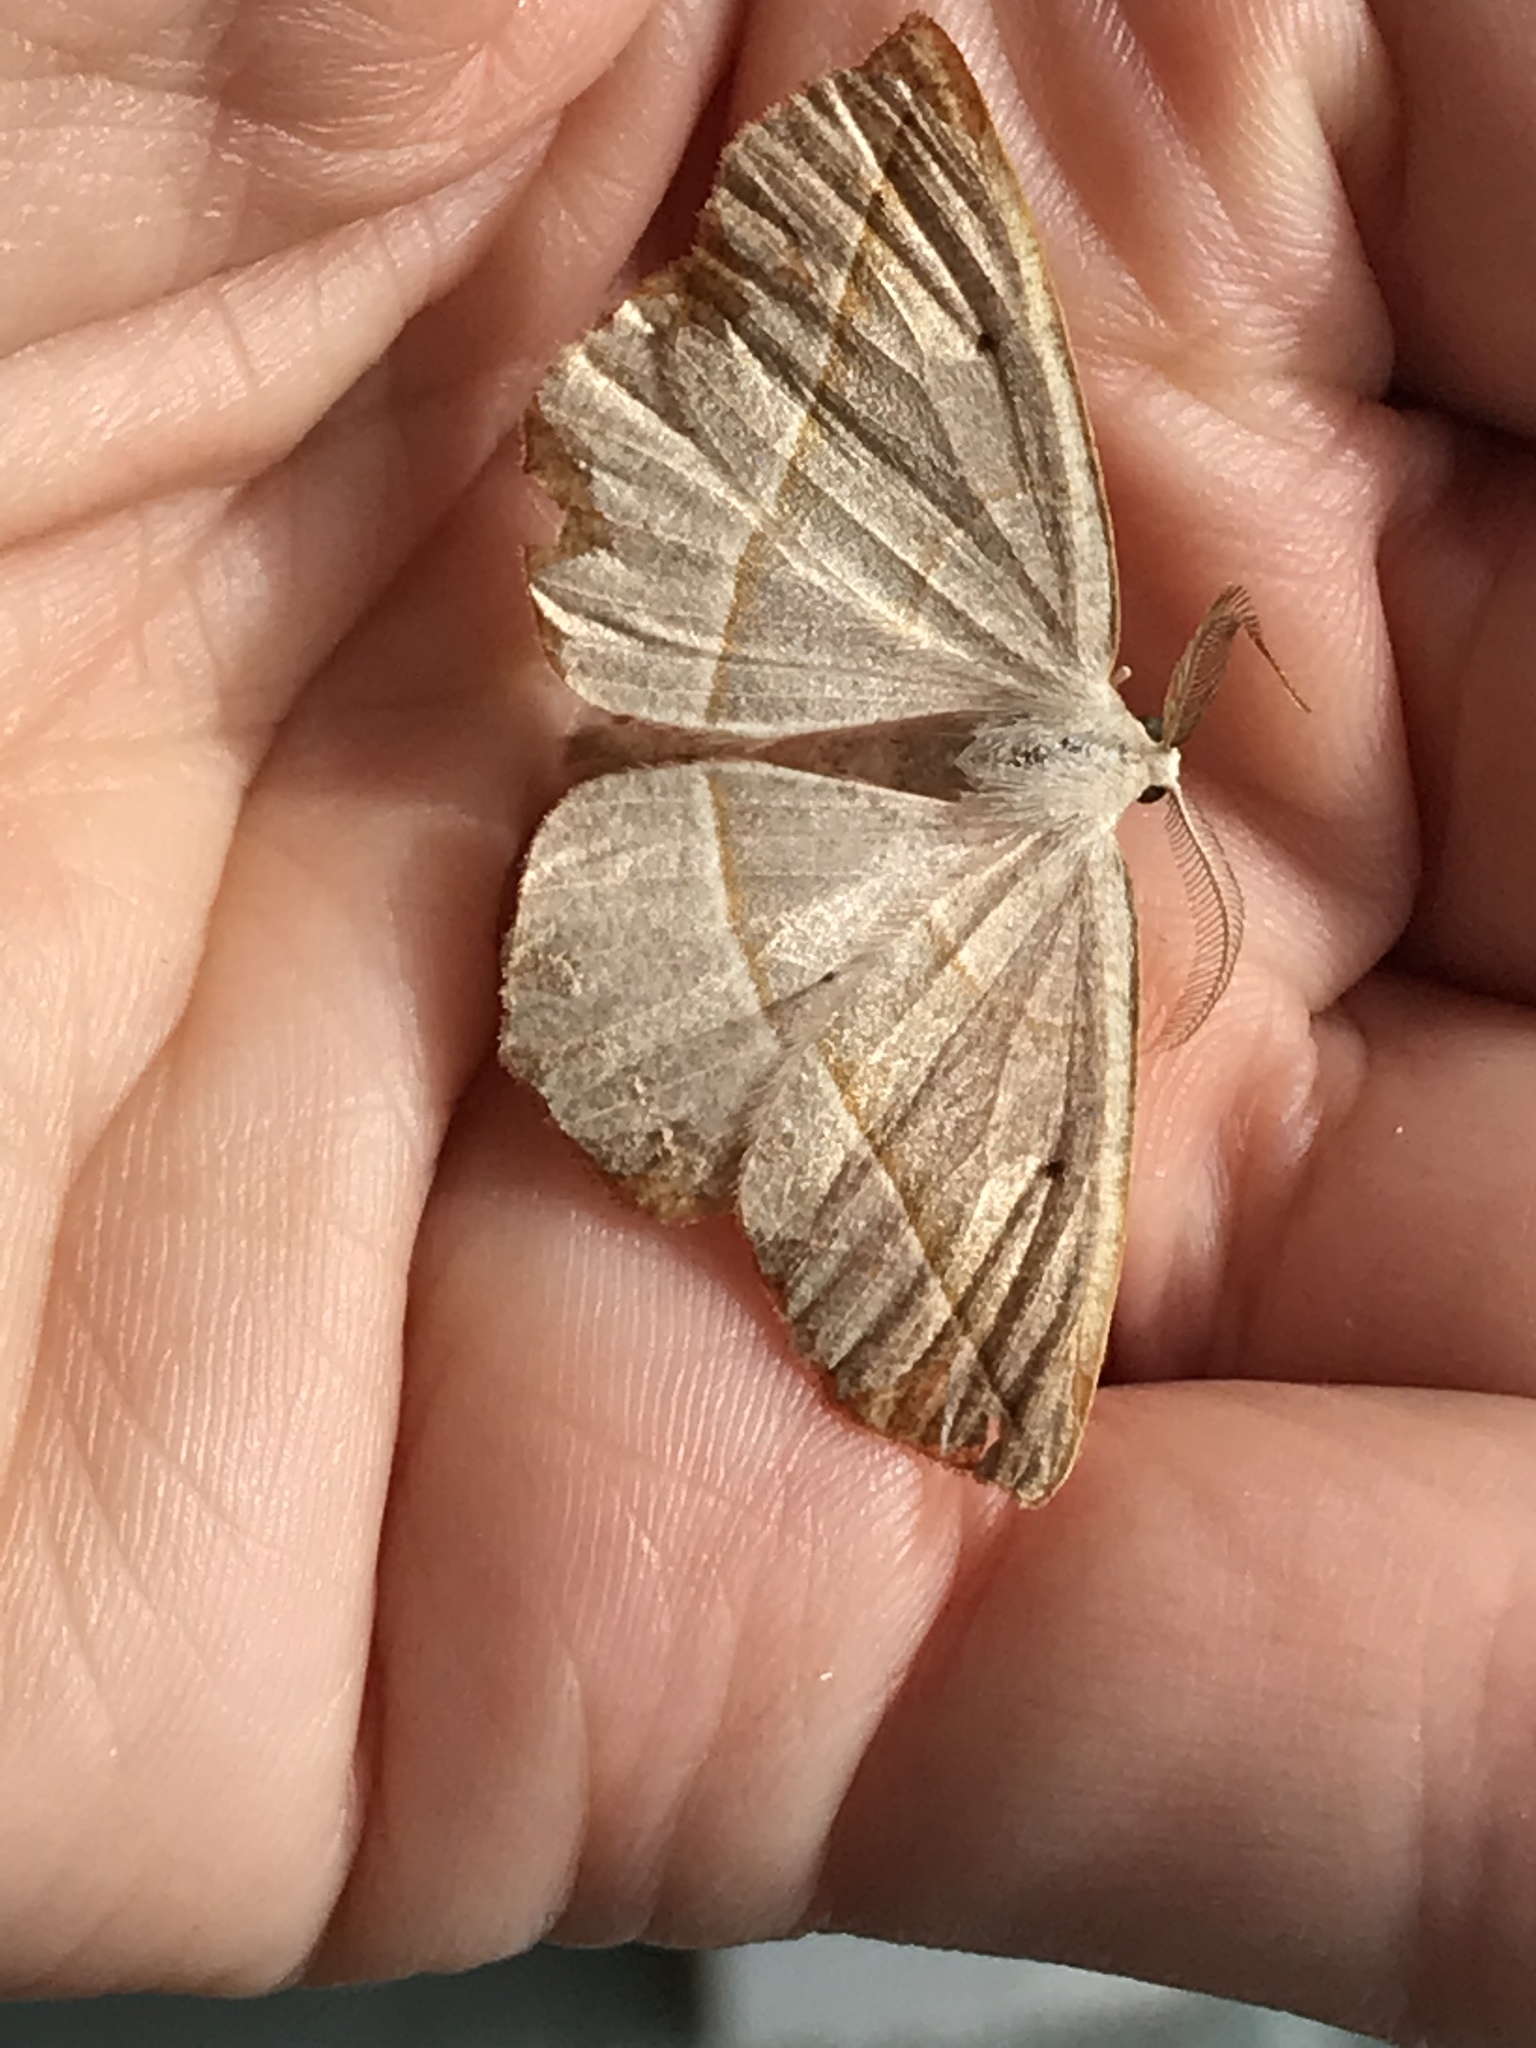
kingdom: Animalia
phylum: Arthropoda
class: Insecta
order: Lepidoptera
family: Geometridae
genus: Eusarca
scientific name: Eusarca confusaria
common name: Confused eusarca
